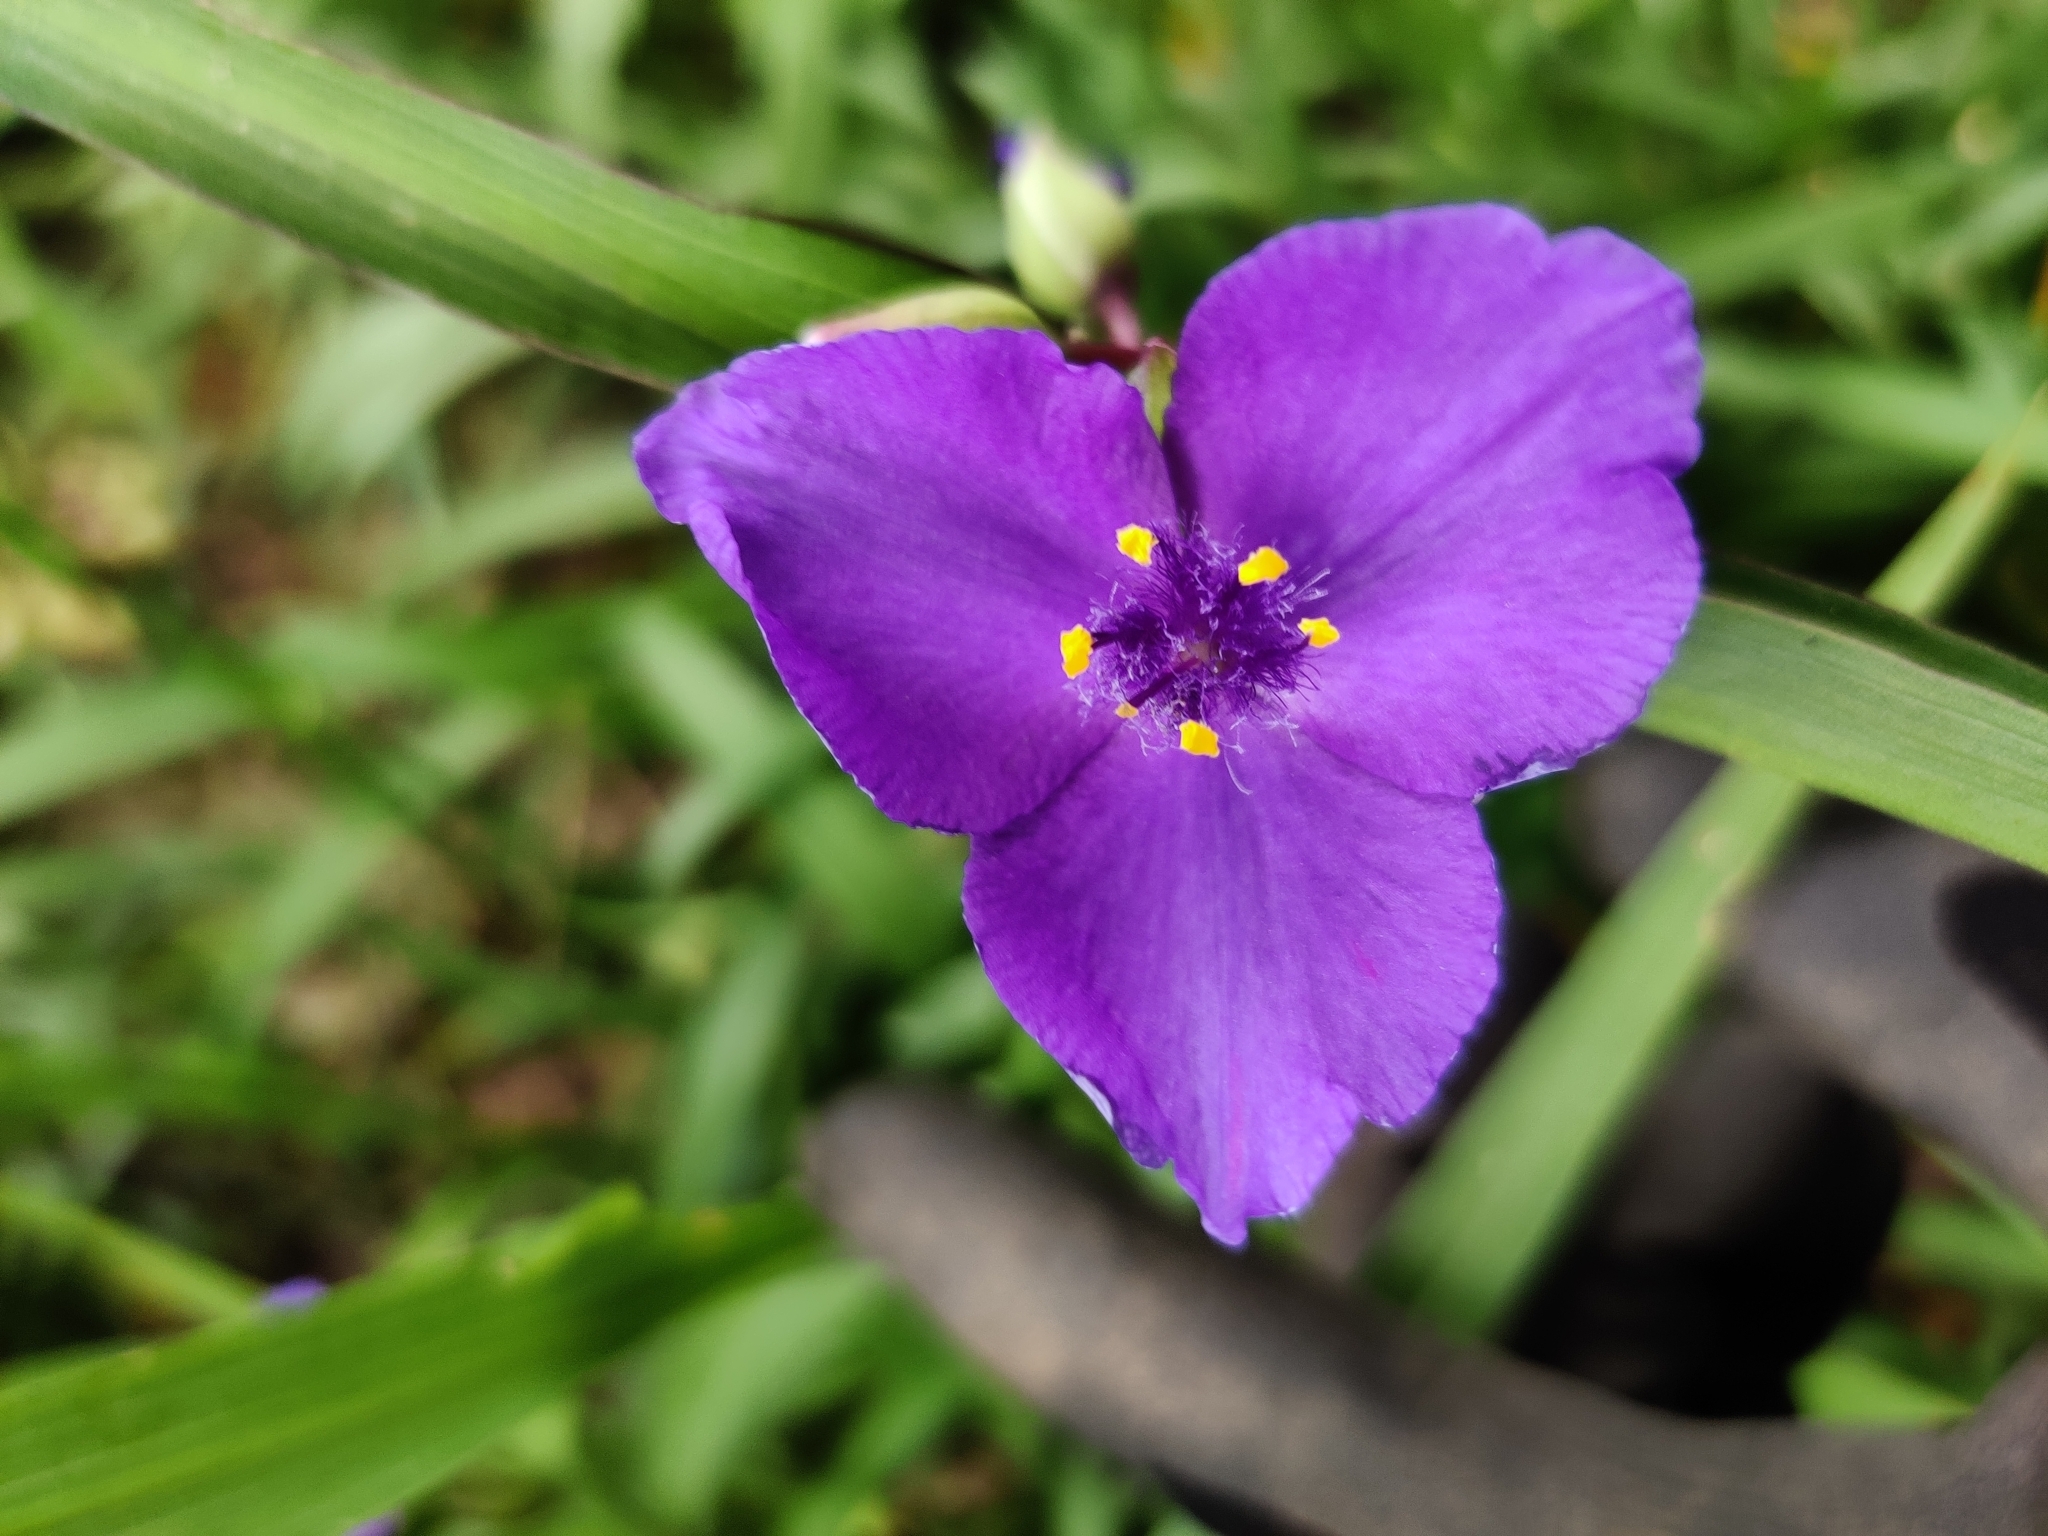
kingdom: Plantae
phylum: Tracheophyta
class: Liliopsida
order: Commelinales
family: Commelinaceae
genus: Tradescantia
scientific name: Tradescantia virginiana
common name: Spiderwort
